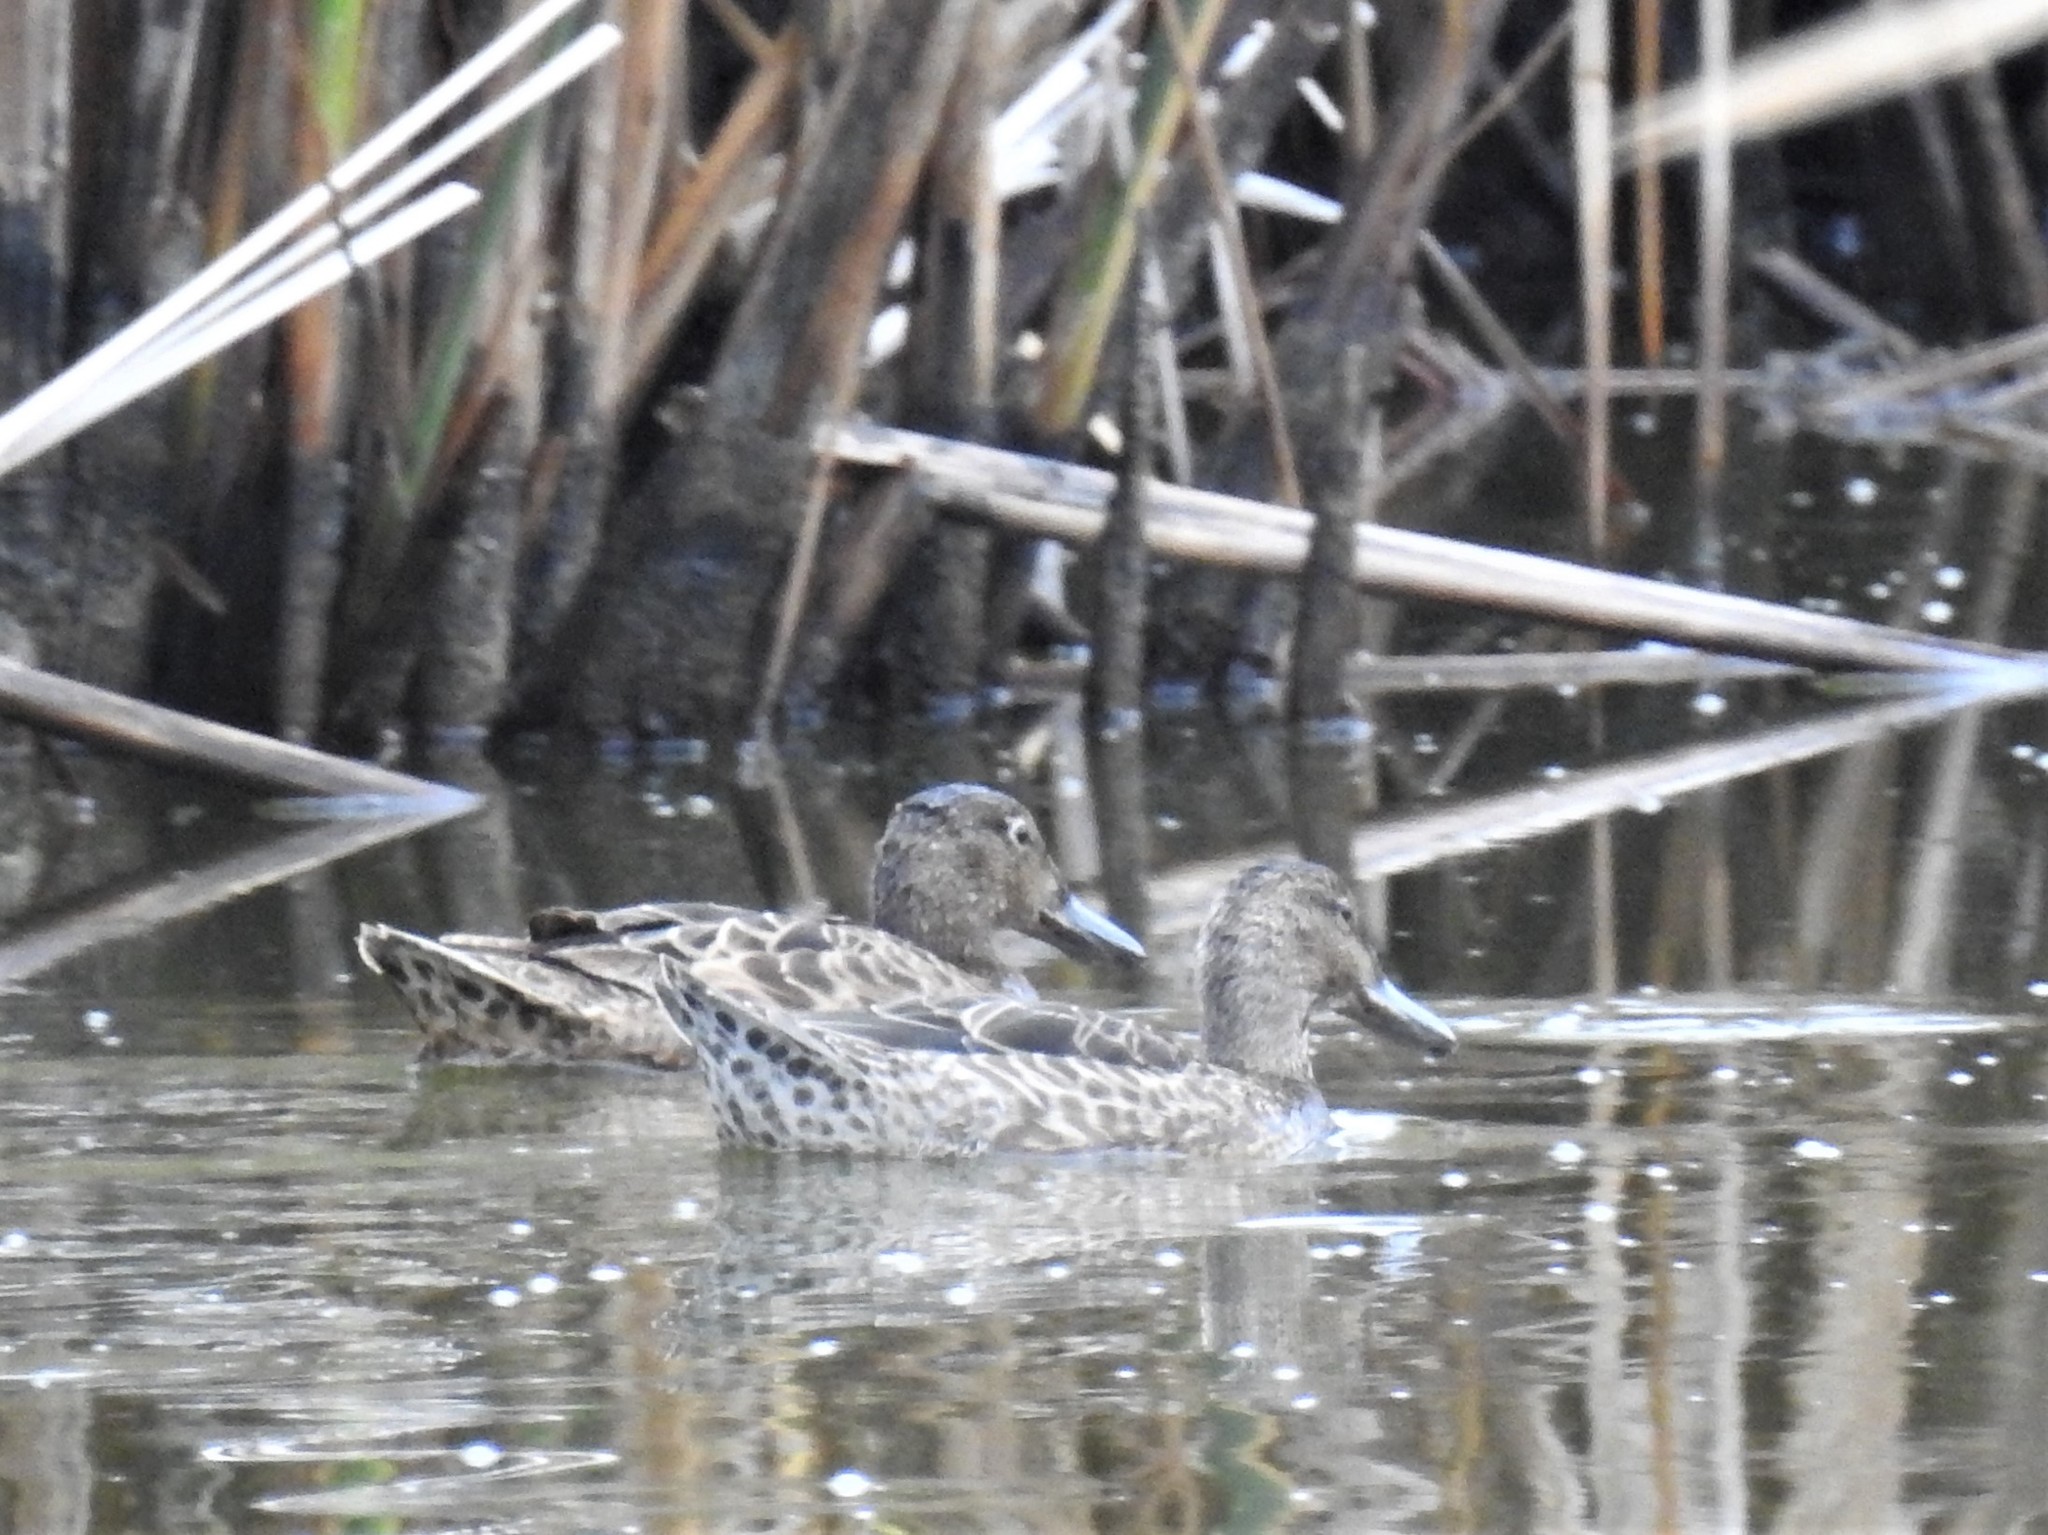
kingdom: Animalia
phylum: Chordata
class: Aves
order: Anseriformes
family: Anatidae
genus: Spatula
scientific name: Spatula cyanoptera
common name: Cinnamon teal
